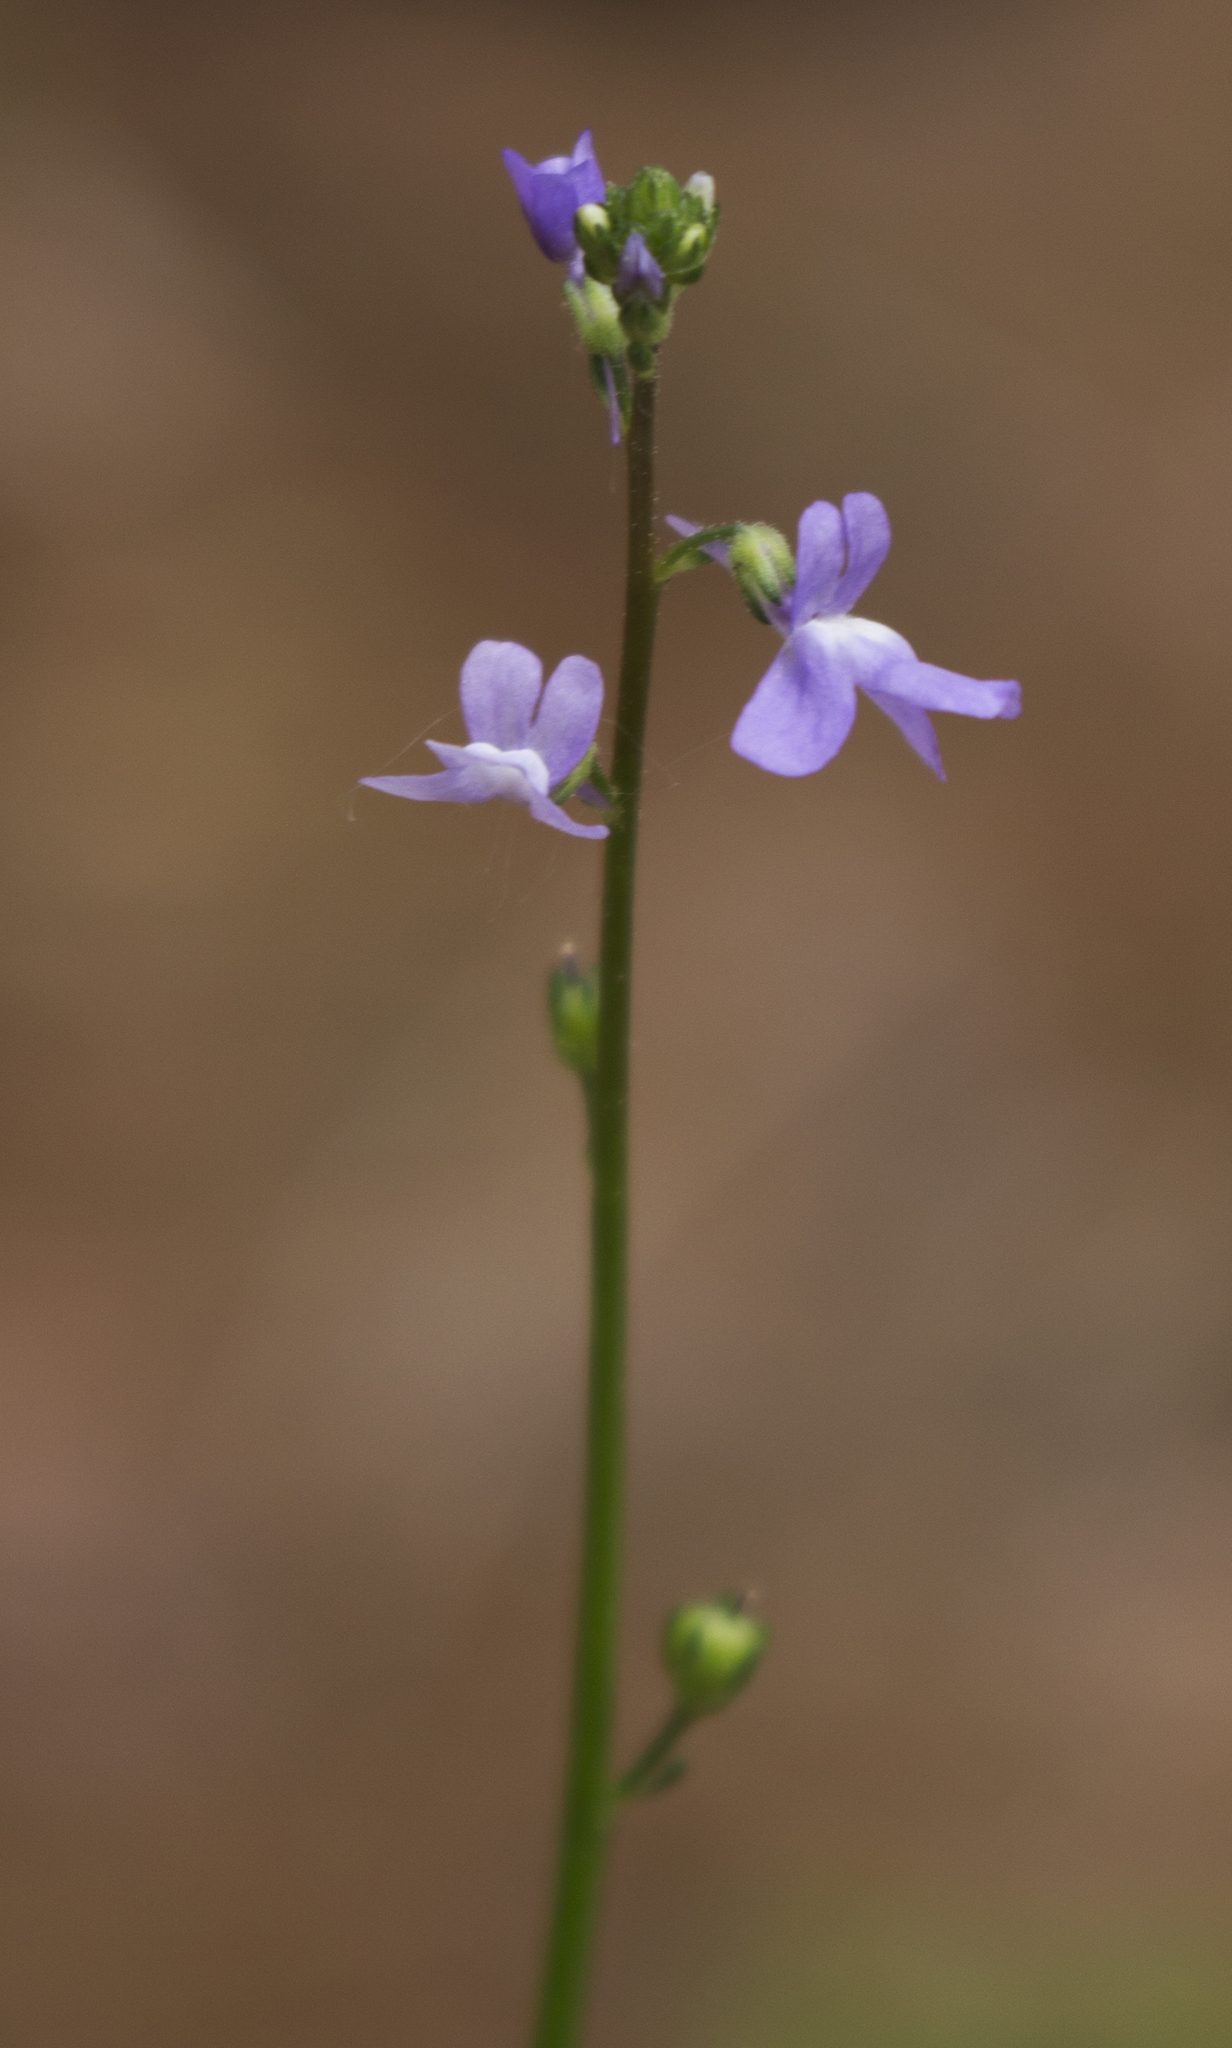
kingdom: Plantae
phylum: Tracheophyta
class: Magnoliopsida
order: Lamiales
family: Plantaginaceae
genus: Nuttallanthus
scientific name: Nuttallanthus canadensis
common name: Blue toadflax
